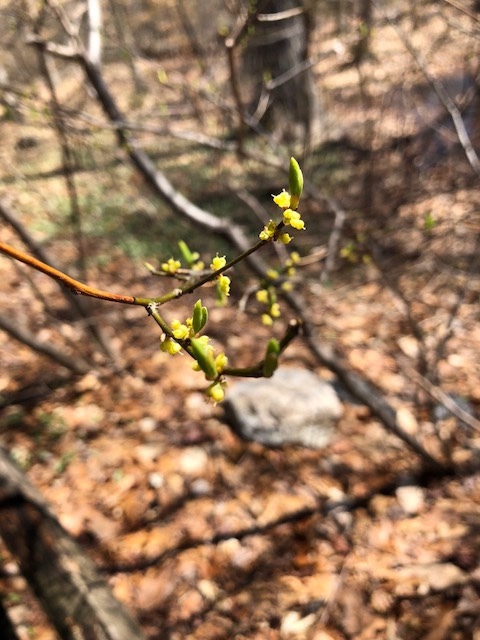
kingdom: Plantae
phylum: Tracheophyta
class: Magnoliopsida
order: Laurales
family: Lauraceae
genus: Lindera
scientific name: Lindera benzoin
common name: Spicebush
